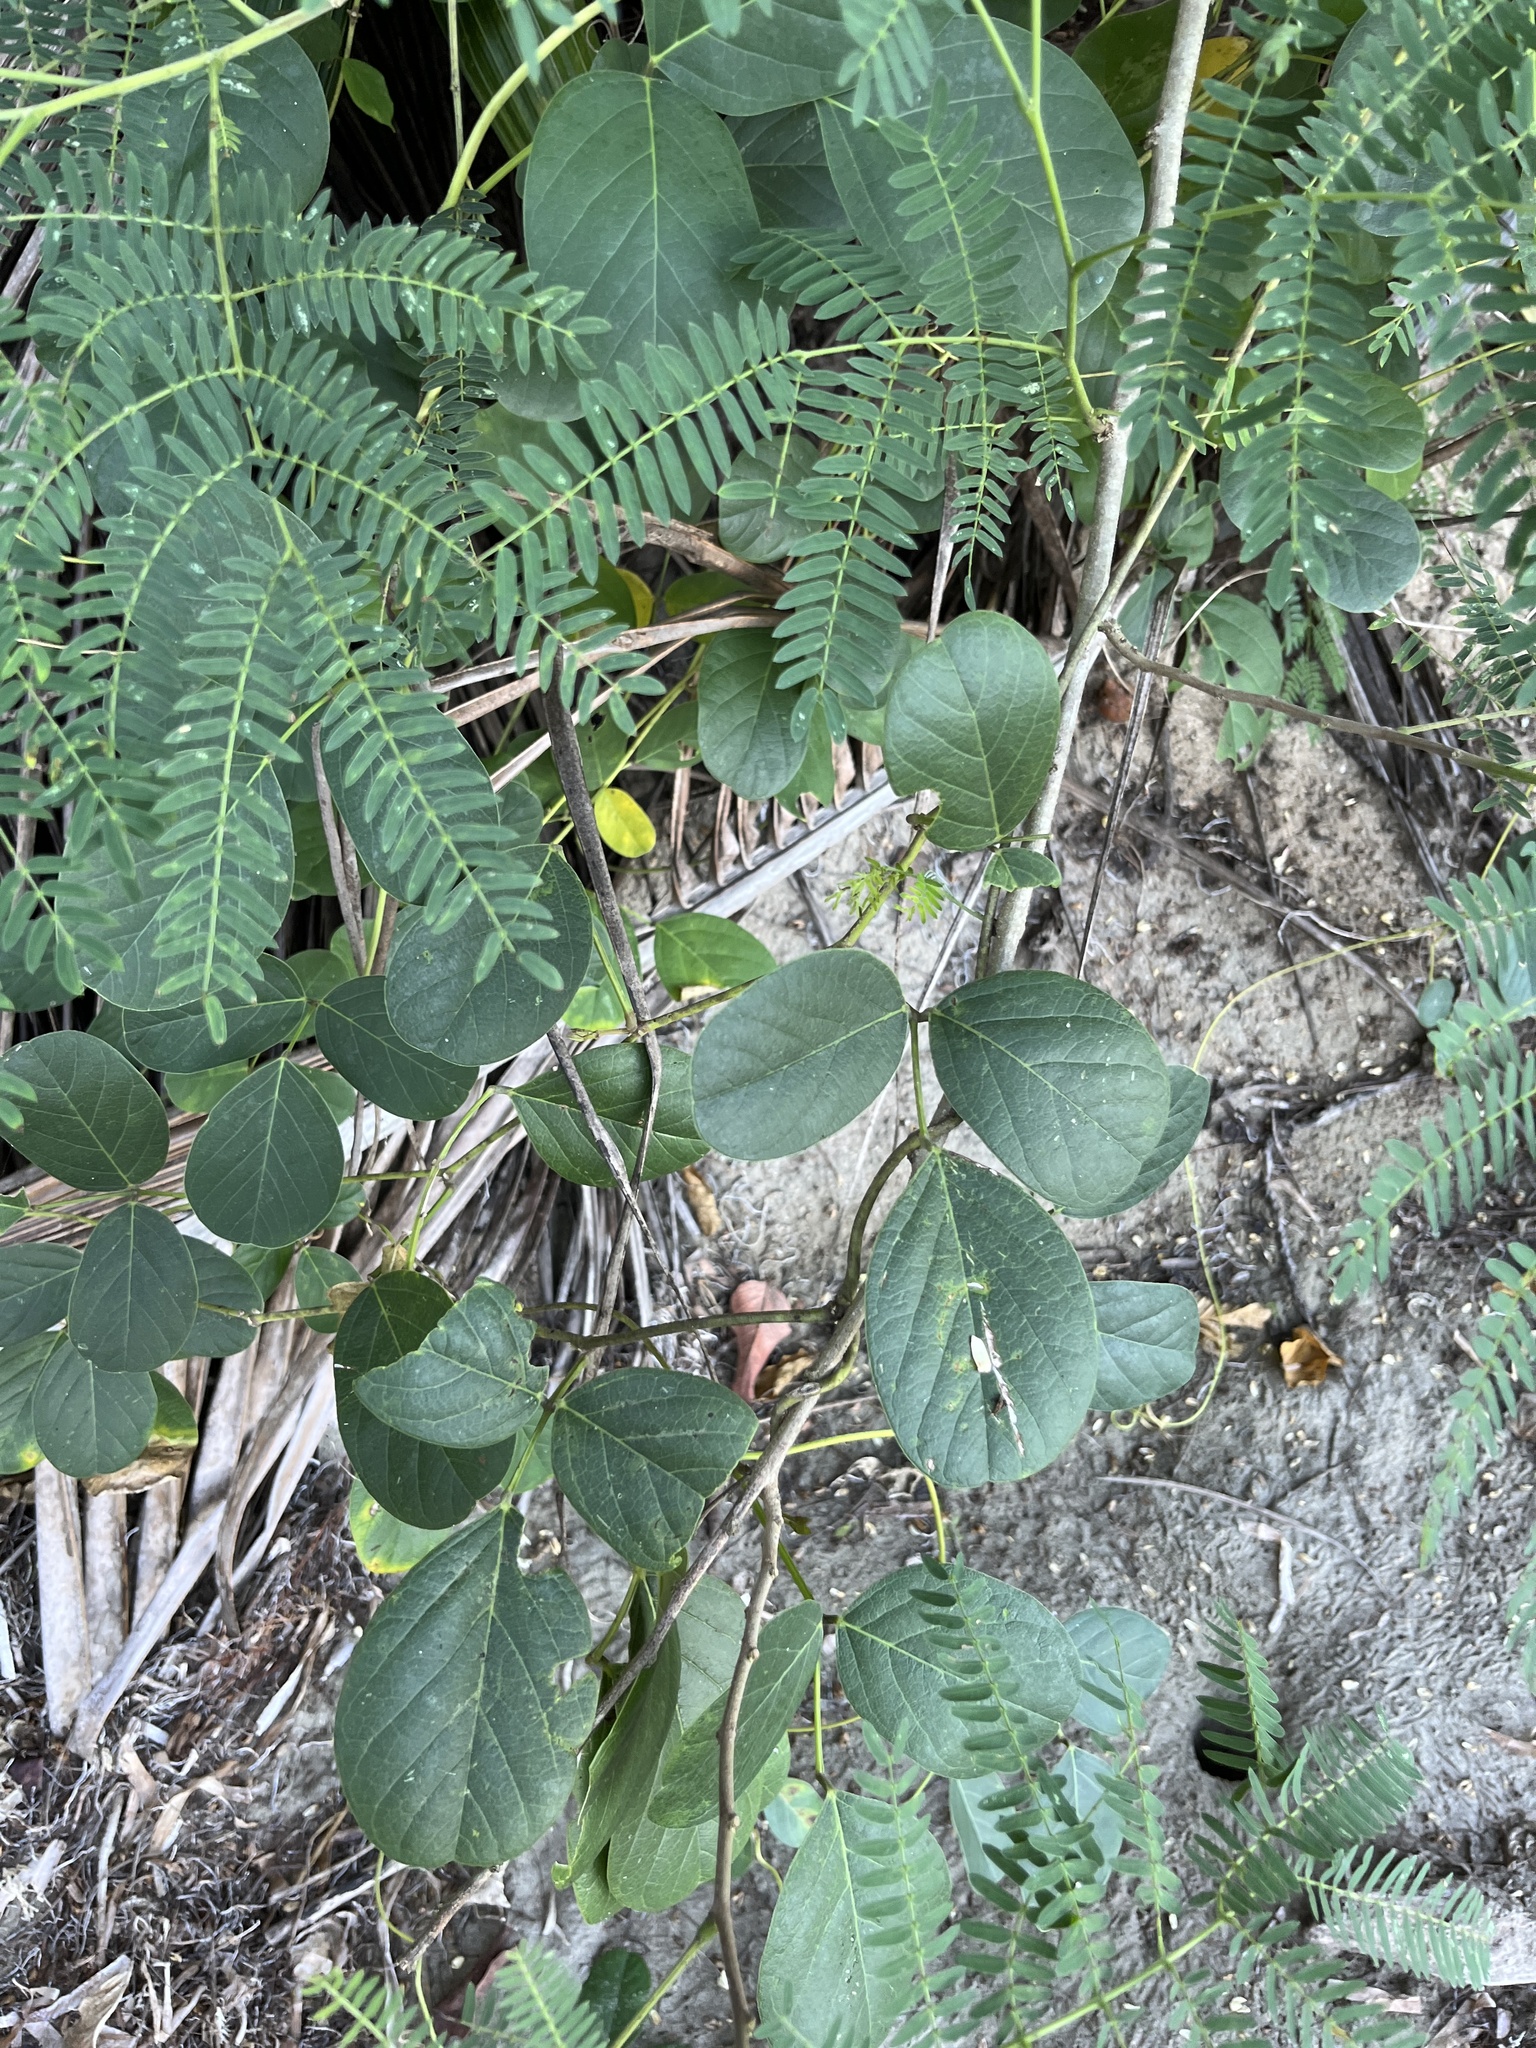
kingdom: Plantae
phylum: Tracheophyta
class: Magnoliopsida
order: Fabales
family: Fabaceae
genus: Canavalia
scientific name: Canavalia rosea
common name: Beach-bean
